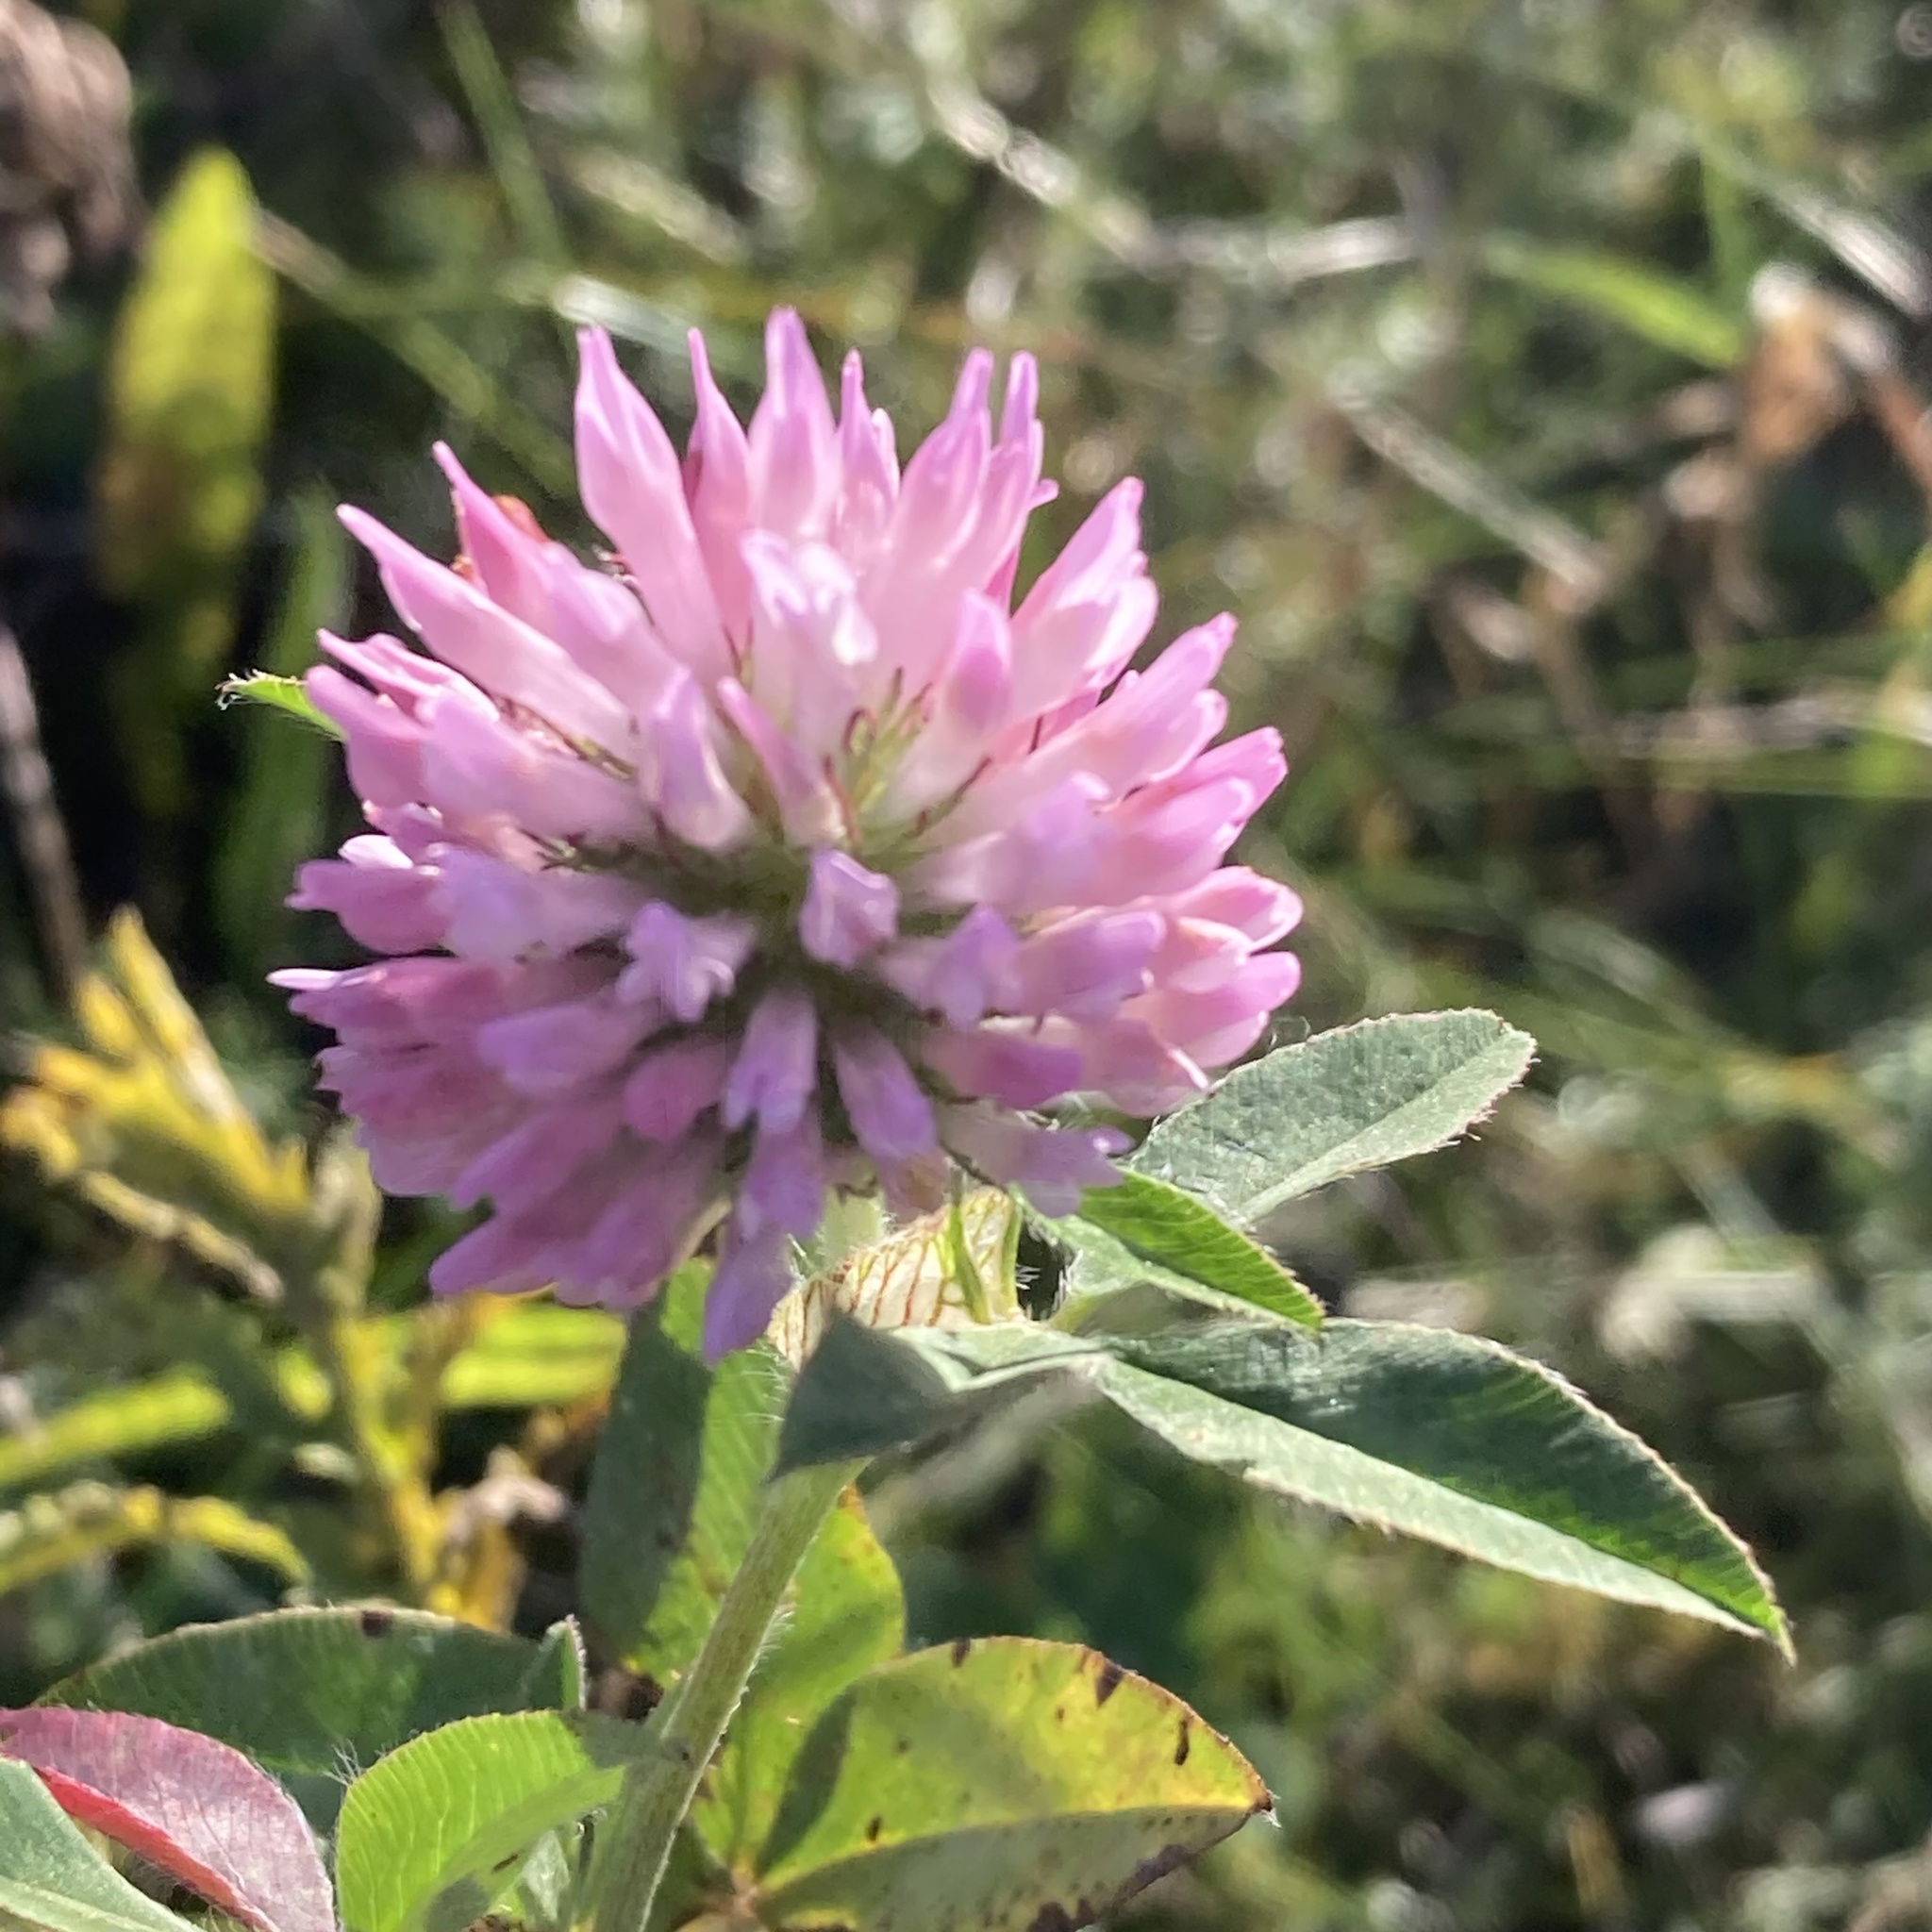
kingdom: Plantae
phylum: Tracheophyta
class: Magnoliopsida
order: Fabales
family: Fabaceae
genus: Trifolium
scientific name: Trifolium pratense
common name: Red clover
